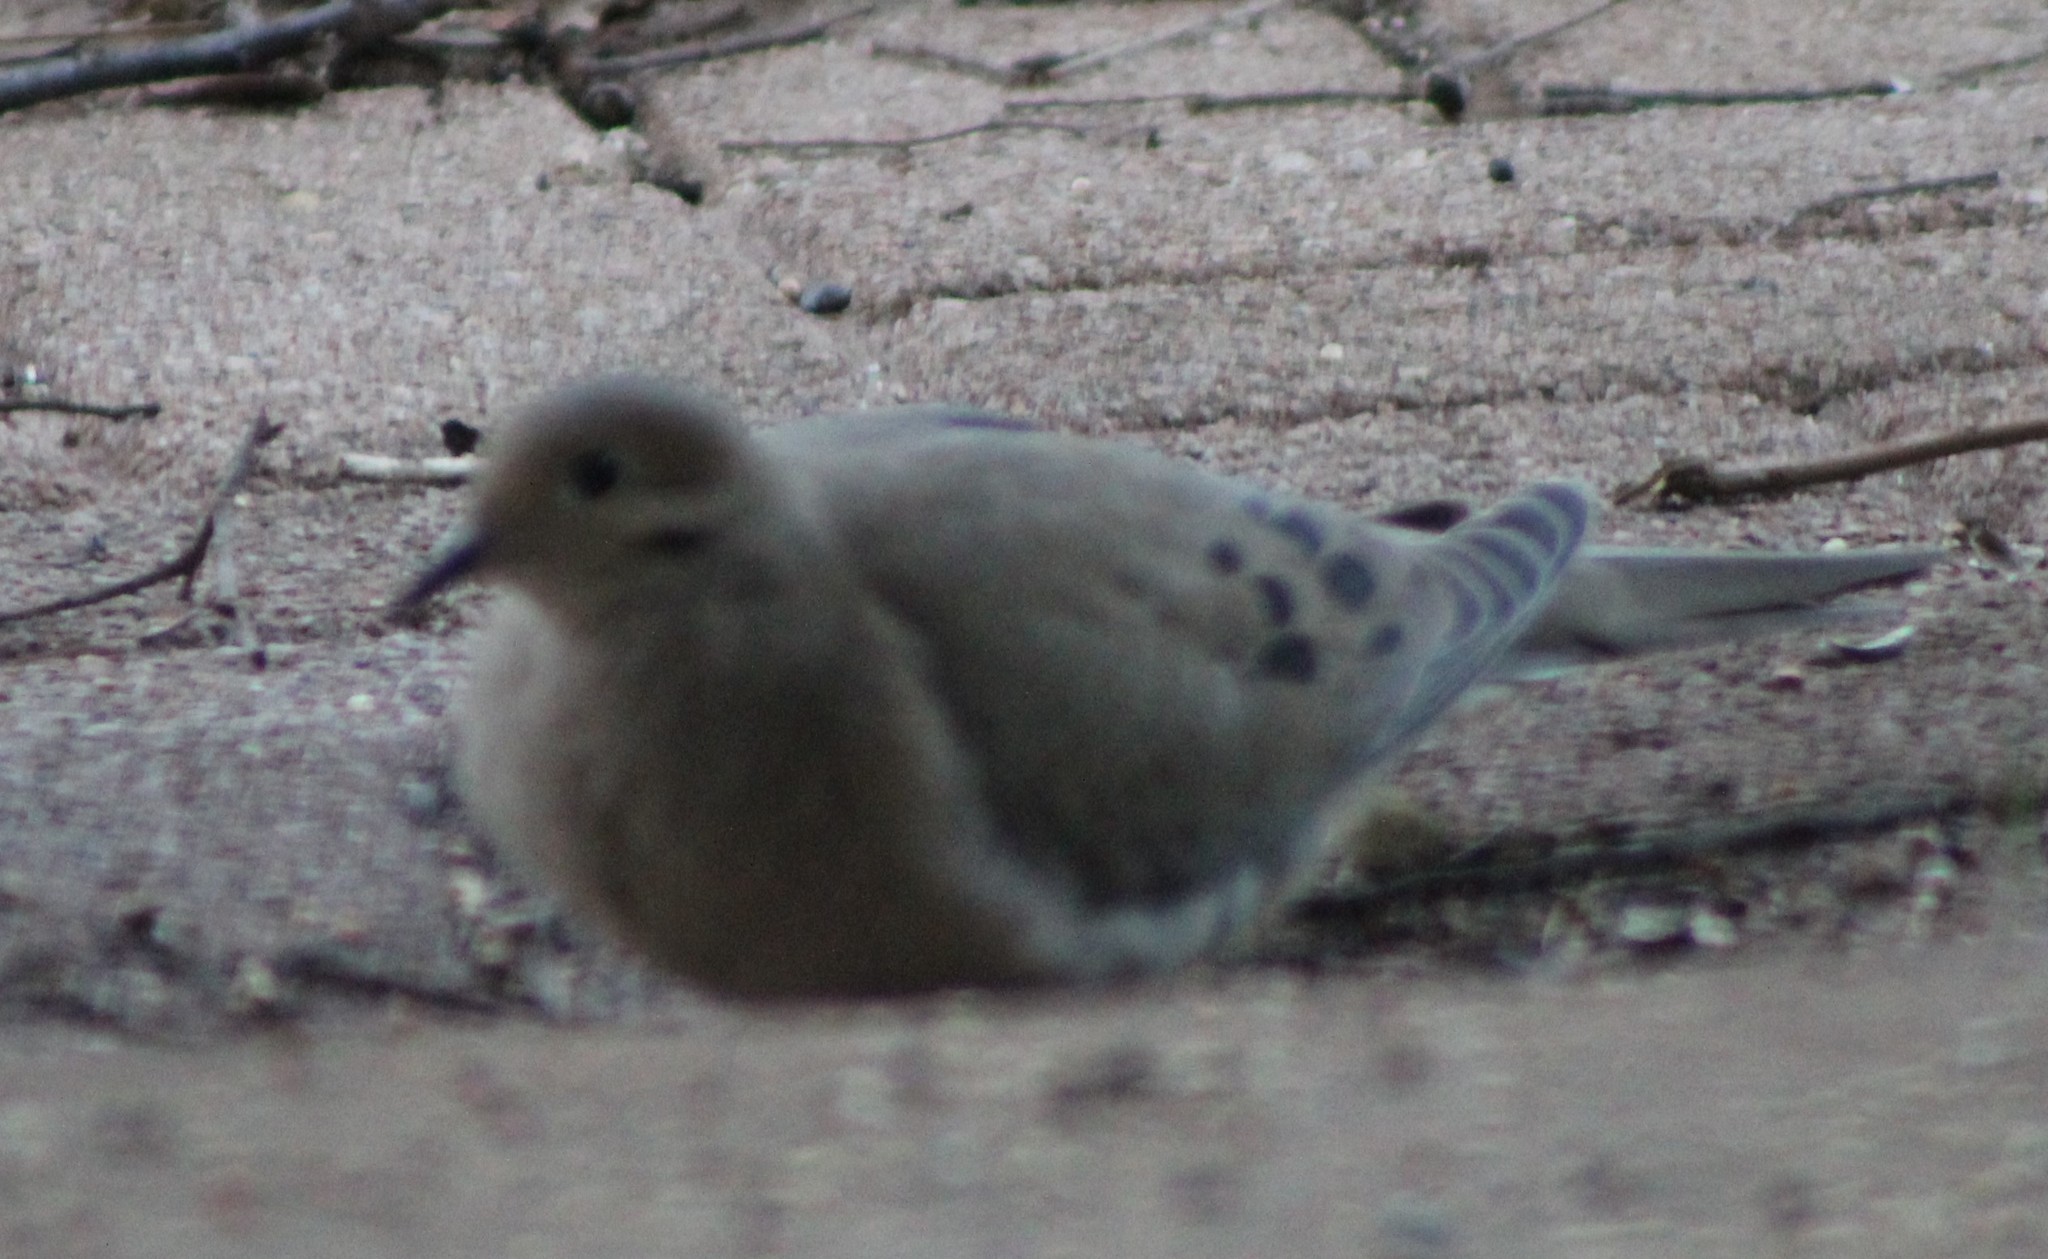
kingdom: Animalia
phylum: Chordata
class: Aves
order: Columbiformes
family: Columbidae
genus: Zenaida
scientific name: Zenaida macroura
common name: Mourning dove
